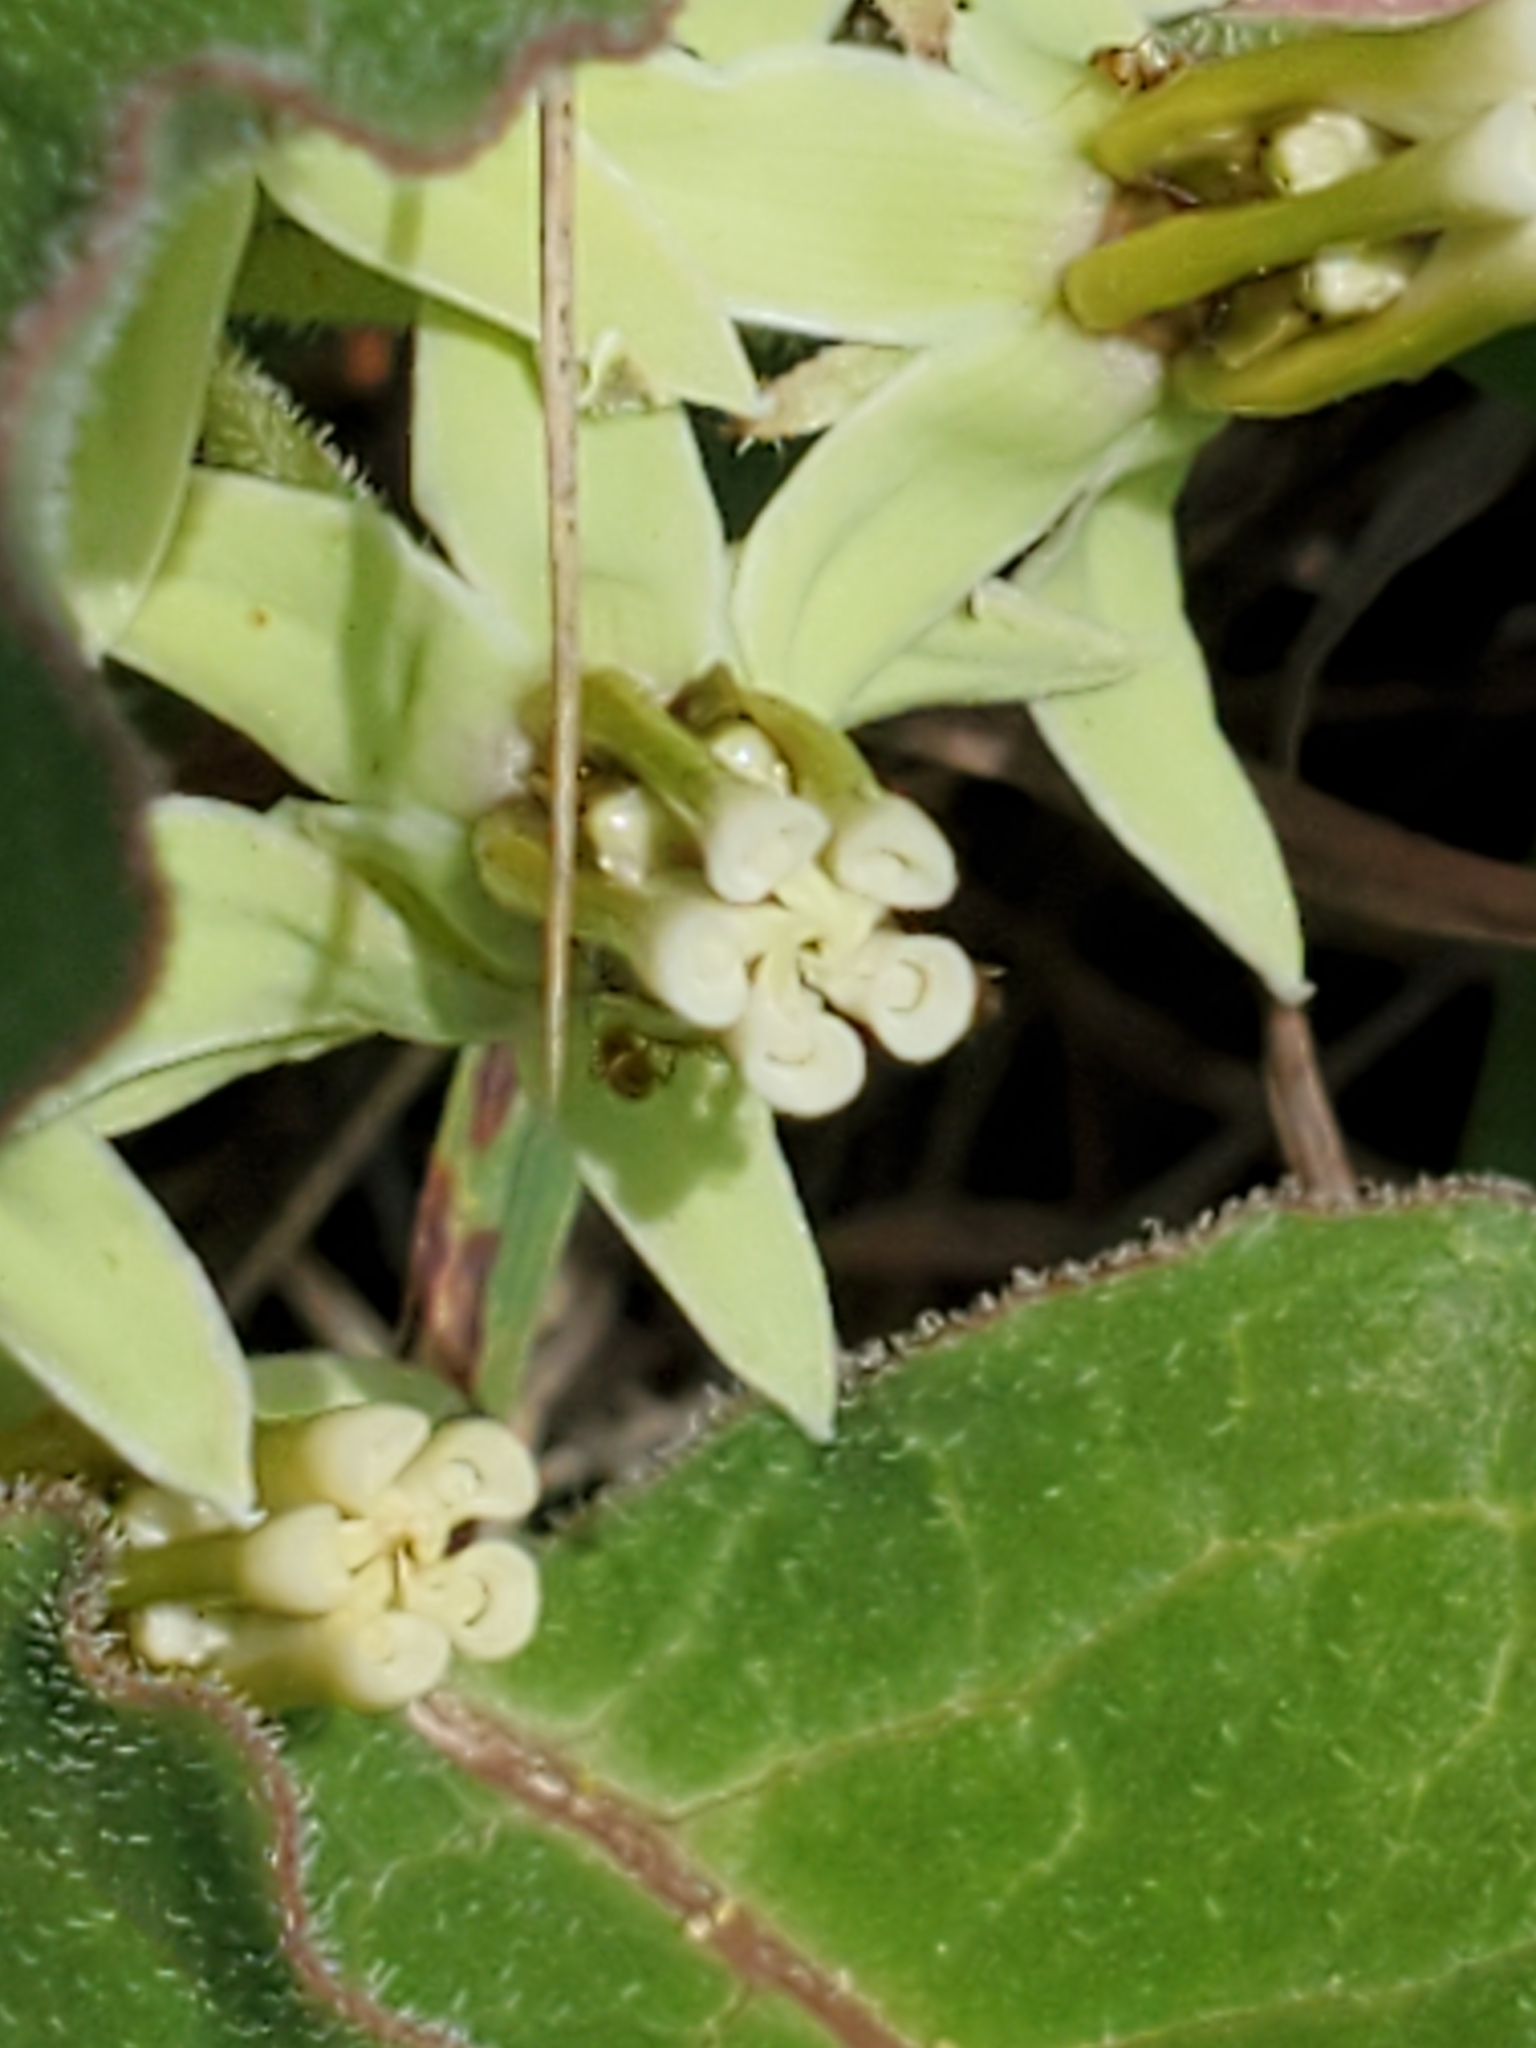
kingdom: Plantae
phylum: Tracheophyta
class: Magnoliopsida
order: Gentianales
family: Apocynaceae
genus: Asclepias
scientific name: Asclepias oenotheroides
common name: Zizotes milkweed
